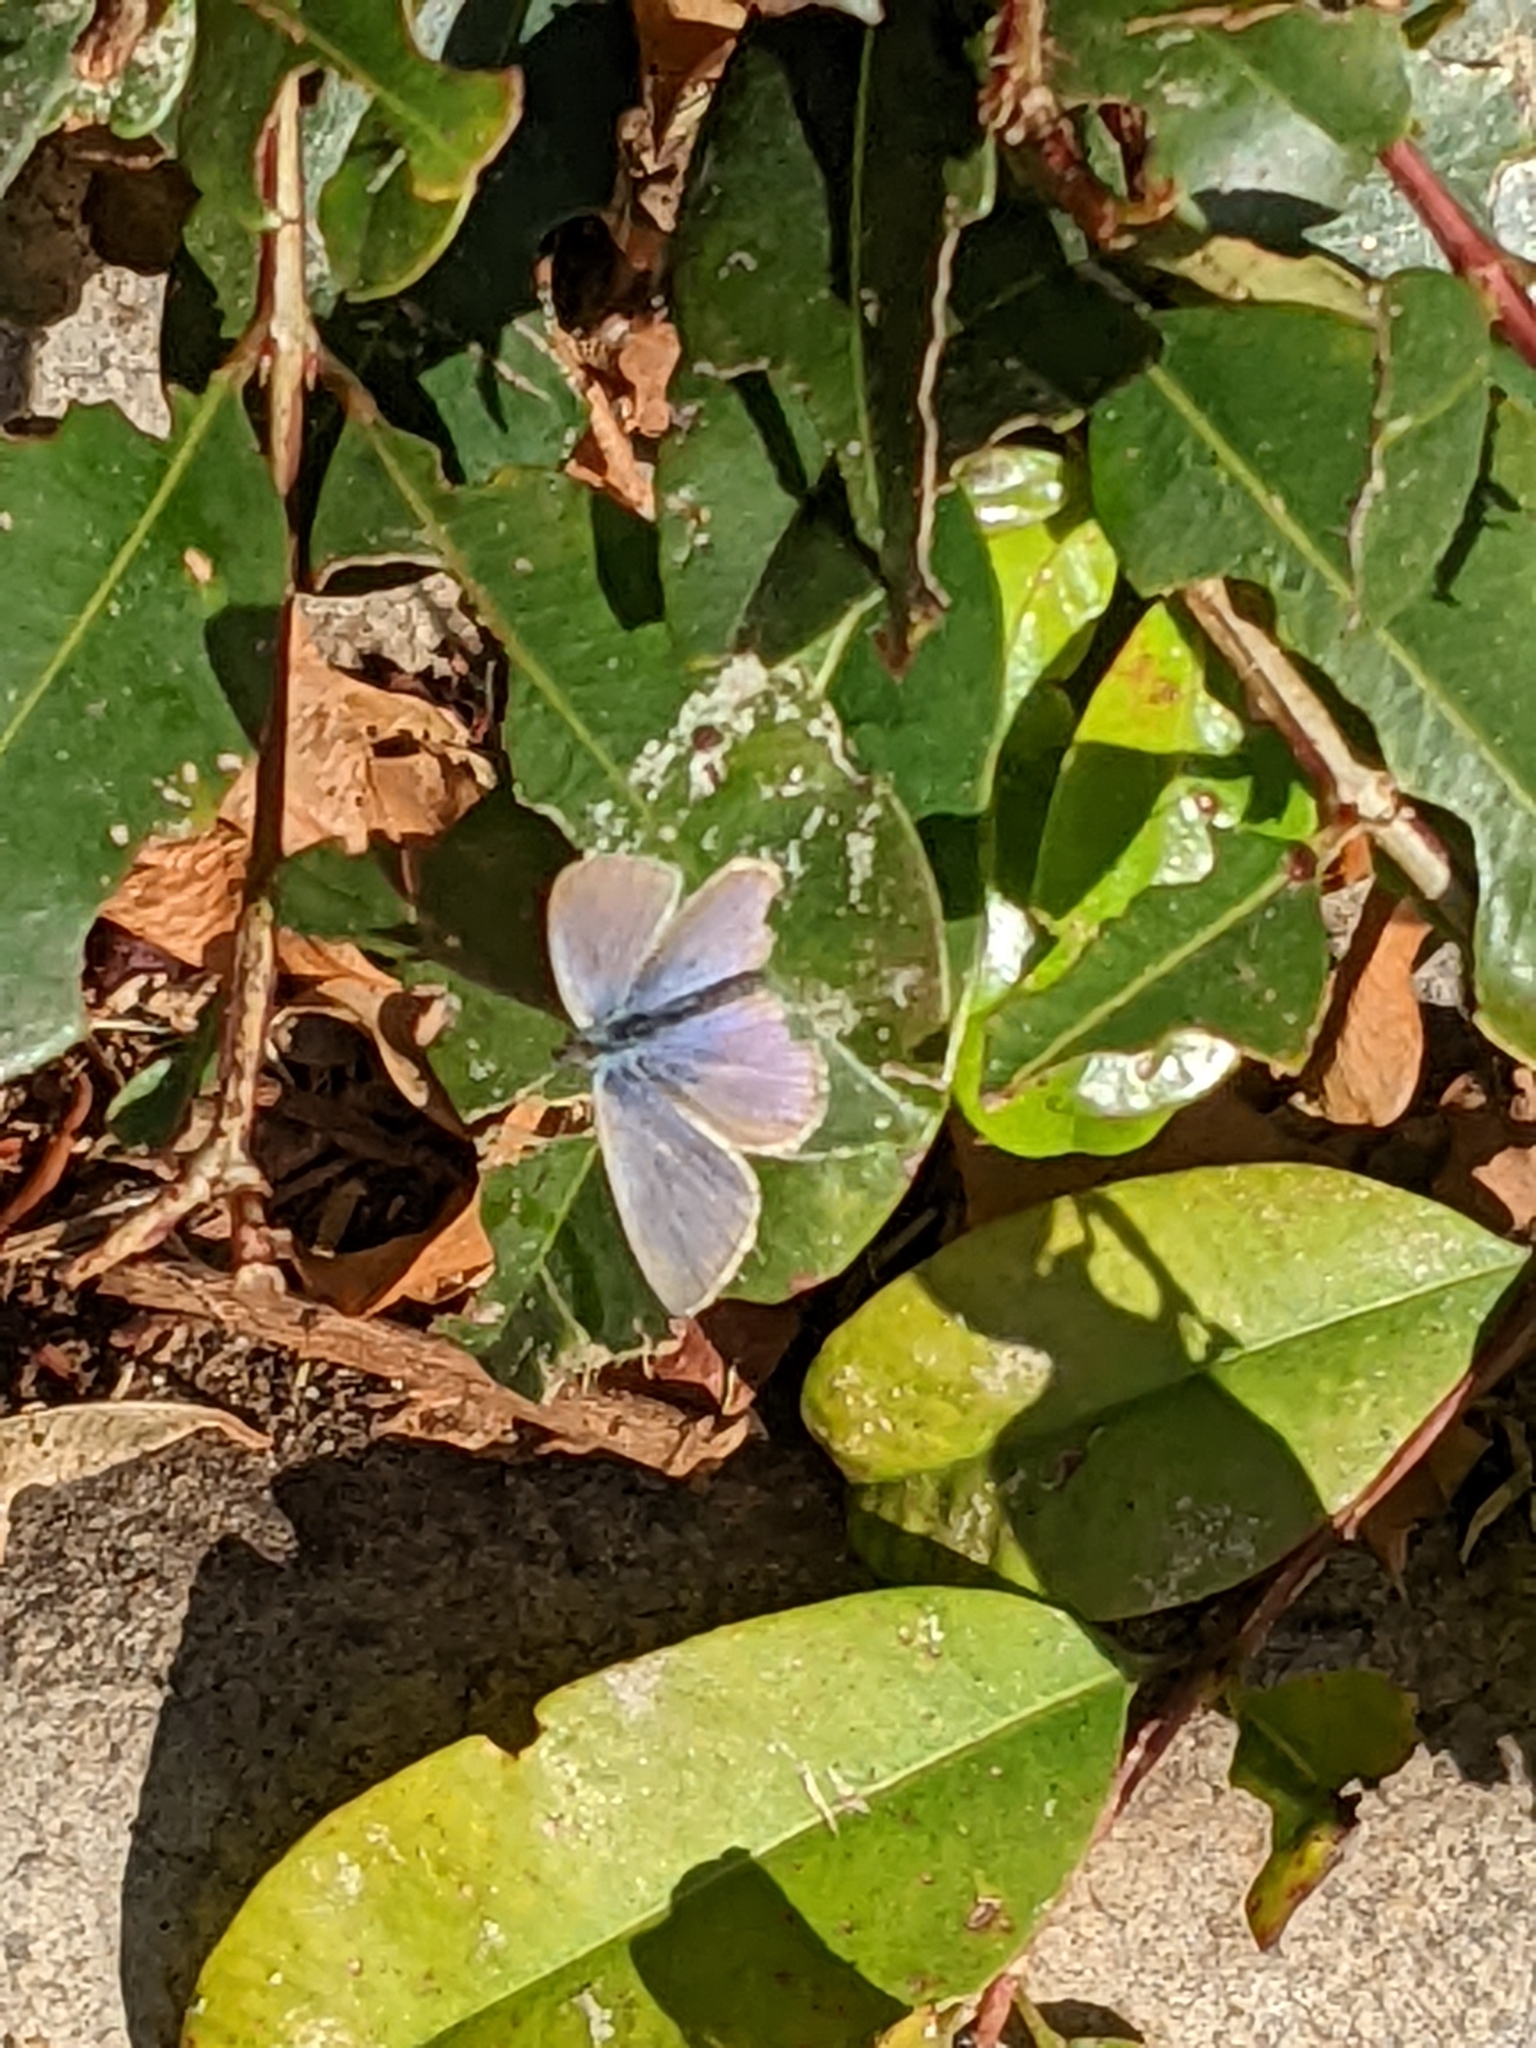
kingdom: Animalia
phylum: Arthropoda
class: Insecta
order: Lepidoptera
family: Lycaenidae
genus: Zizina
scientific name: Zizina otis
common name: Lesser grass blue
